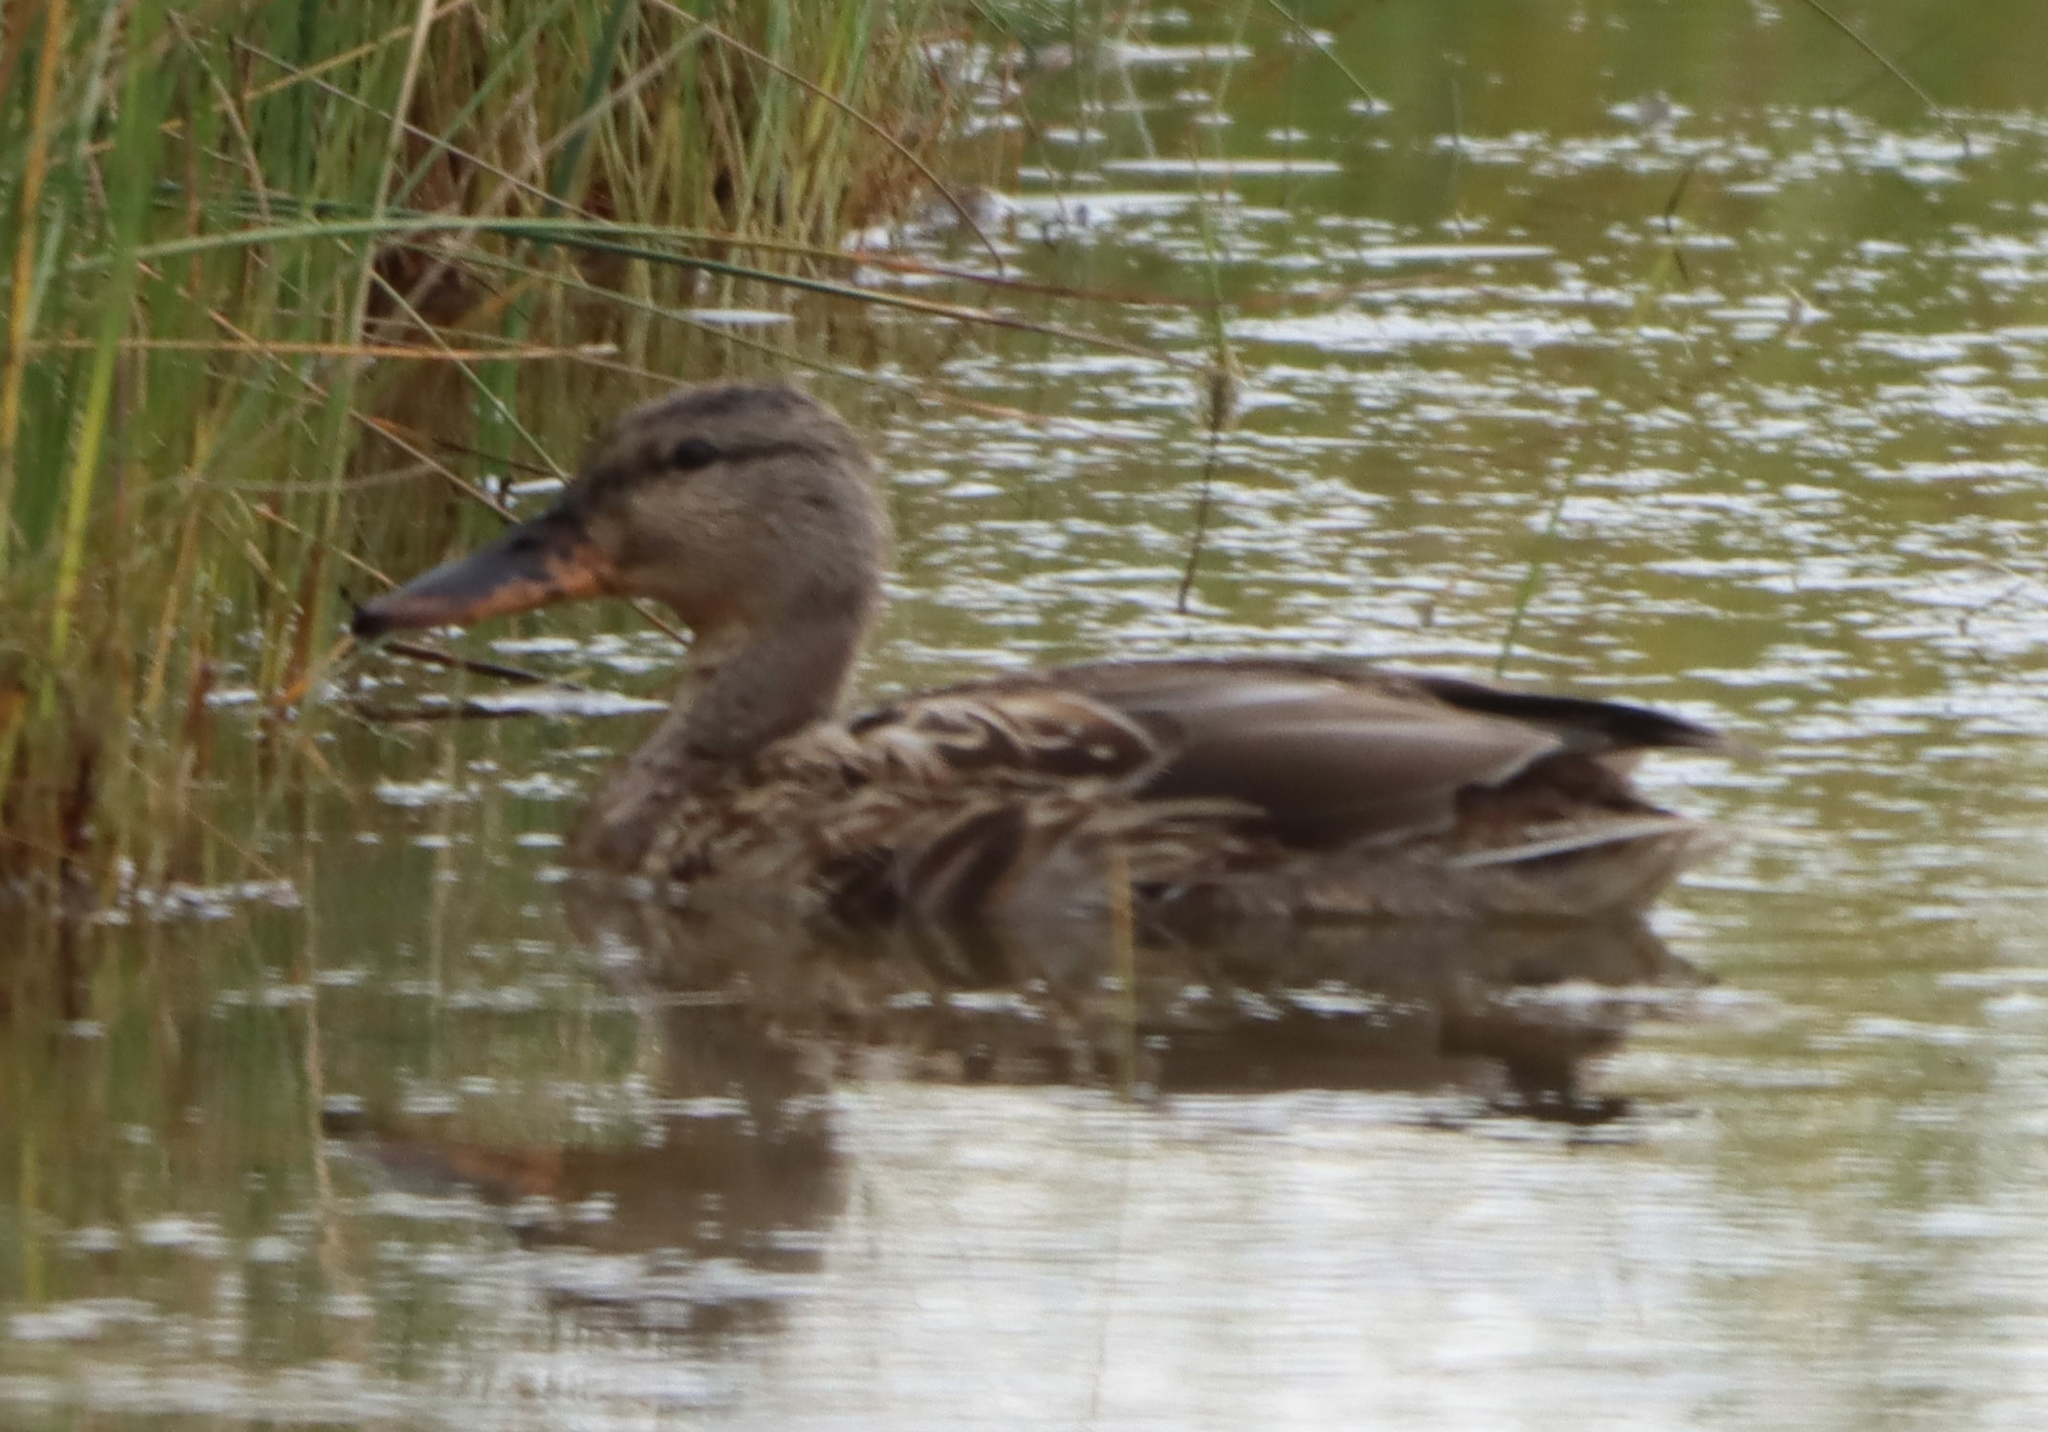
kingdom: Animalia
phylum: Chordata
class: Aves
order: Anseriformes
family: Anatidae
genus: Anas
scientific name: Anas platyrhynchos
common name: Mallard
